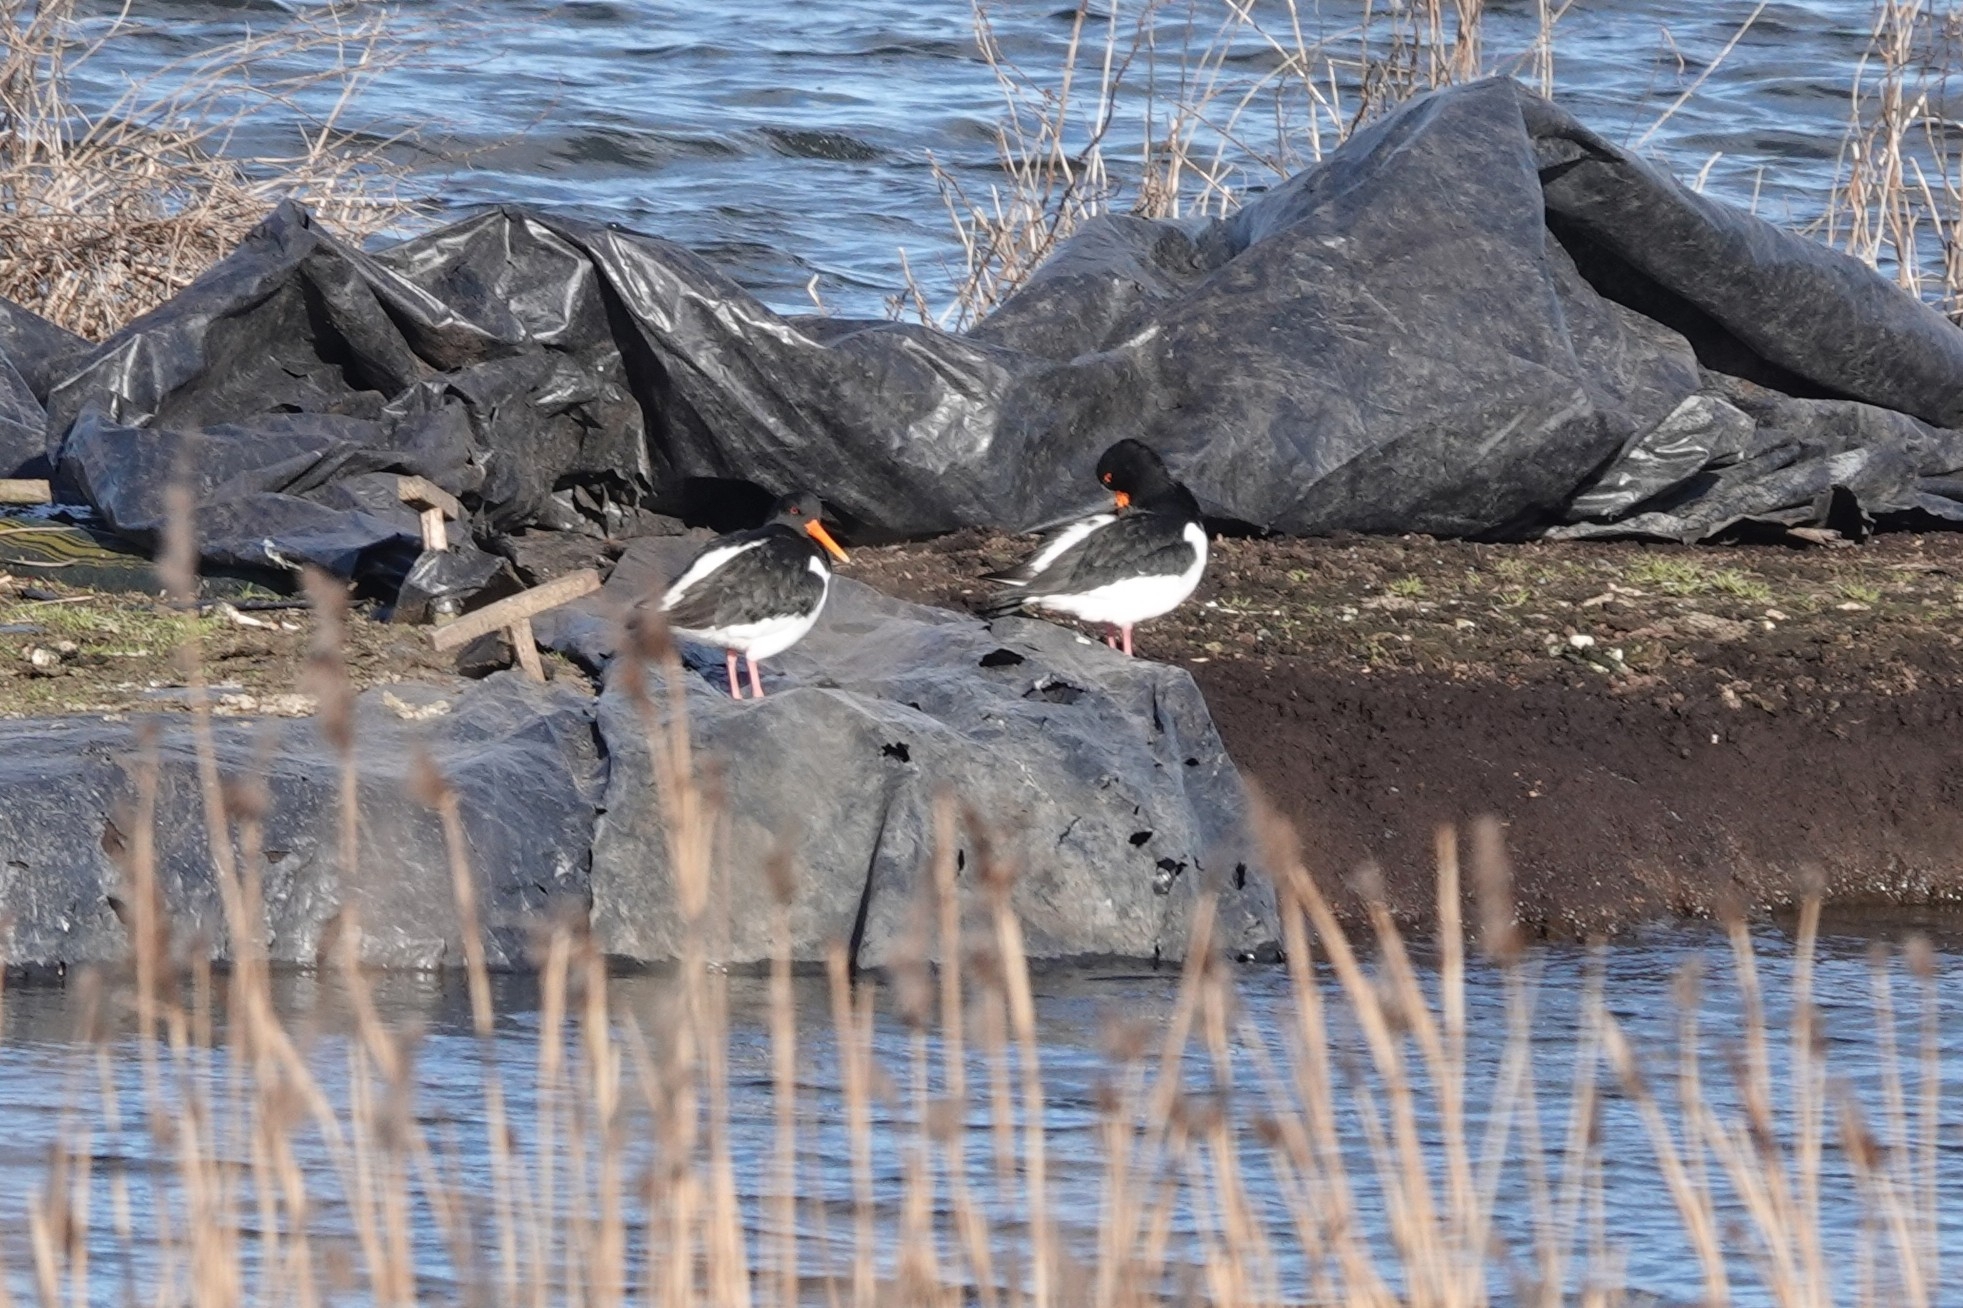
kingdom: Animalia
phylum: Chordata
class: Aves
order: Charadriiformes
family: Haematopodidae
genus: Haematopus
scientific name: Haematopus ostralegus
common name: Eurasian oystercatcher
